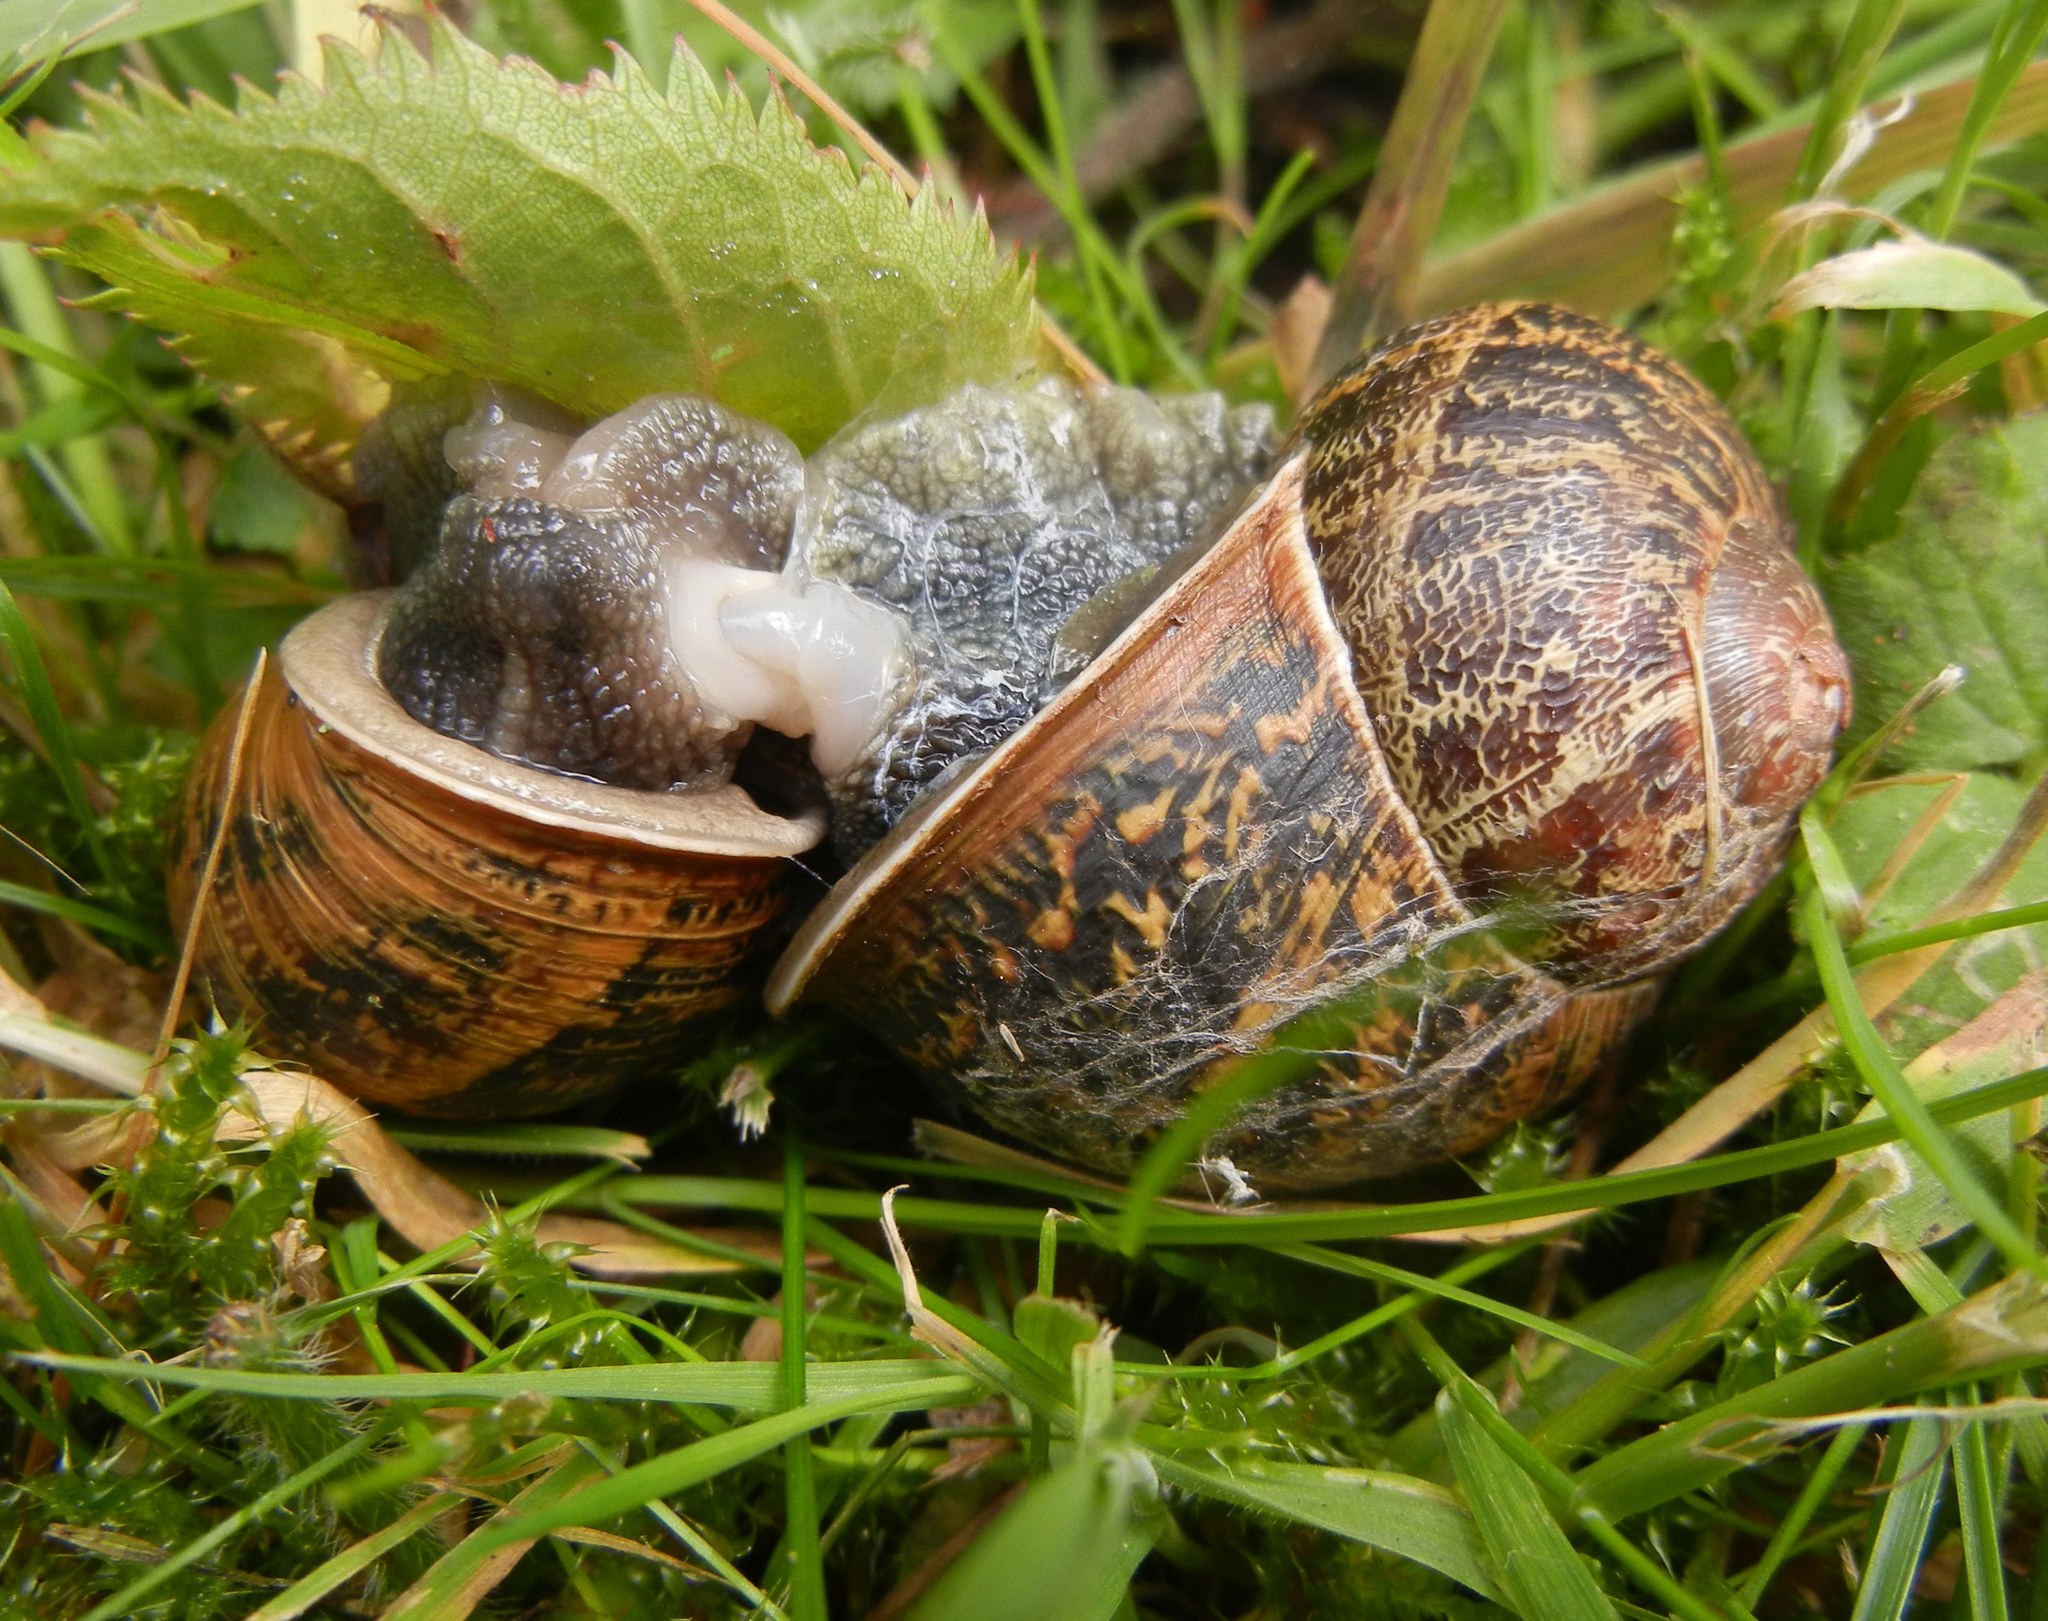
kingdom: Animalia
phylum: Mollusca
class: Gastropoda
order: Stylommatophora
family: Helicidae
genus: Cornu
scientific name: Cornu aspersum
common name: Brown garden snail
